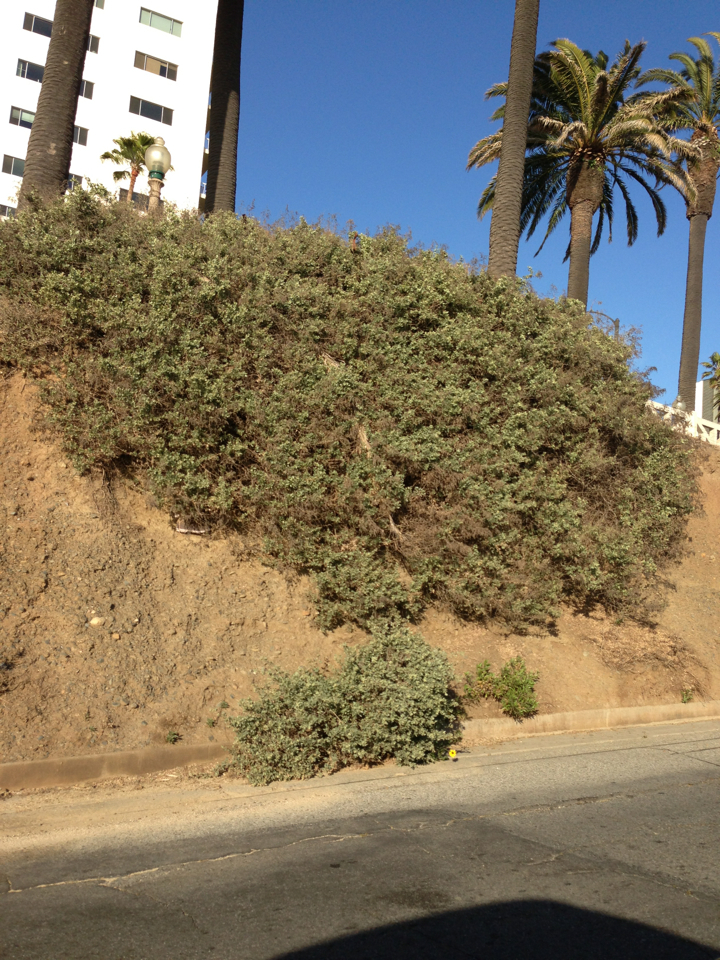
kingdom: Plantae
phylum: Tracheophyta
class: Magnoliopsida
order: Caryophyllales
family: Amaranthaceae
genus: Atriplex
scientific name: Atriplex lentiformis
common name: Big saltbush
